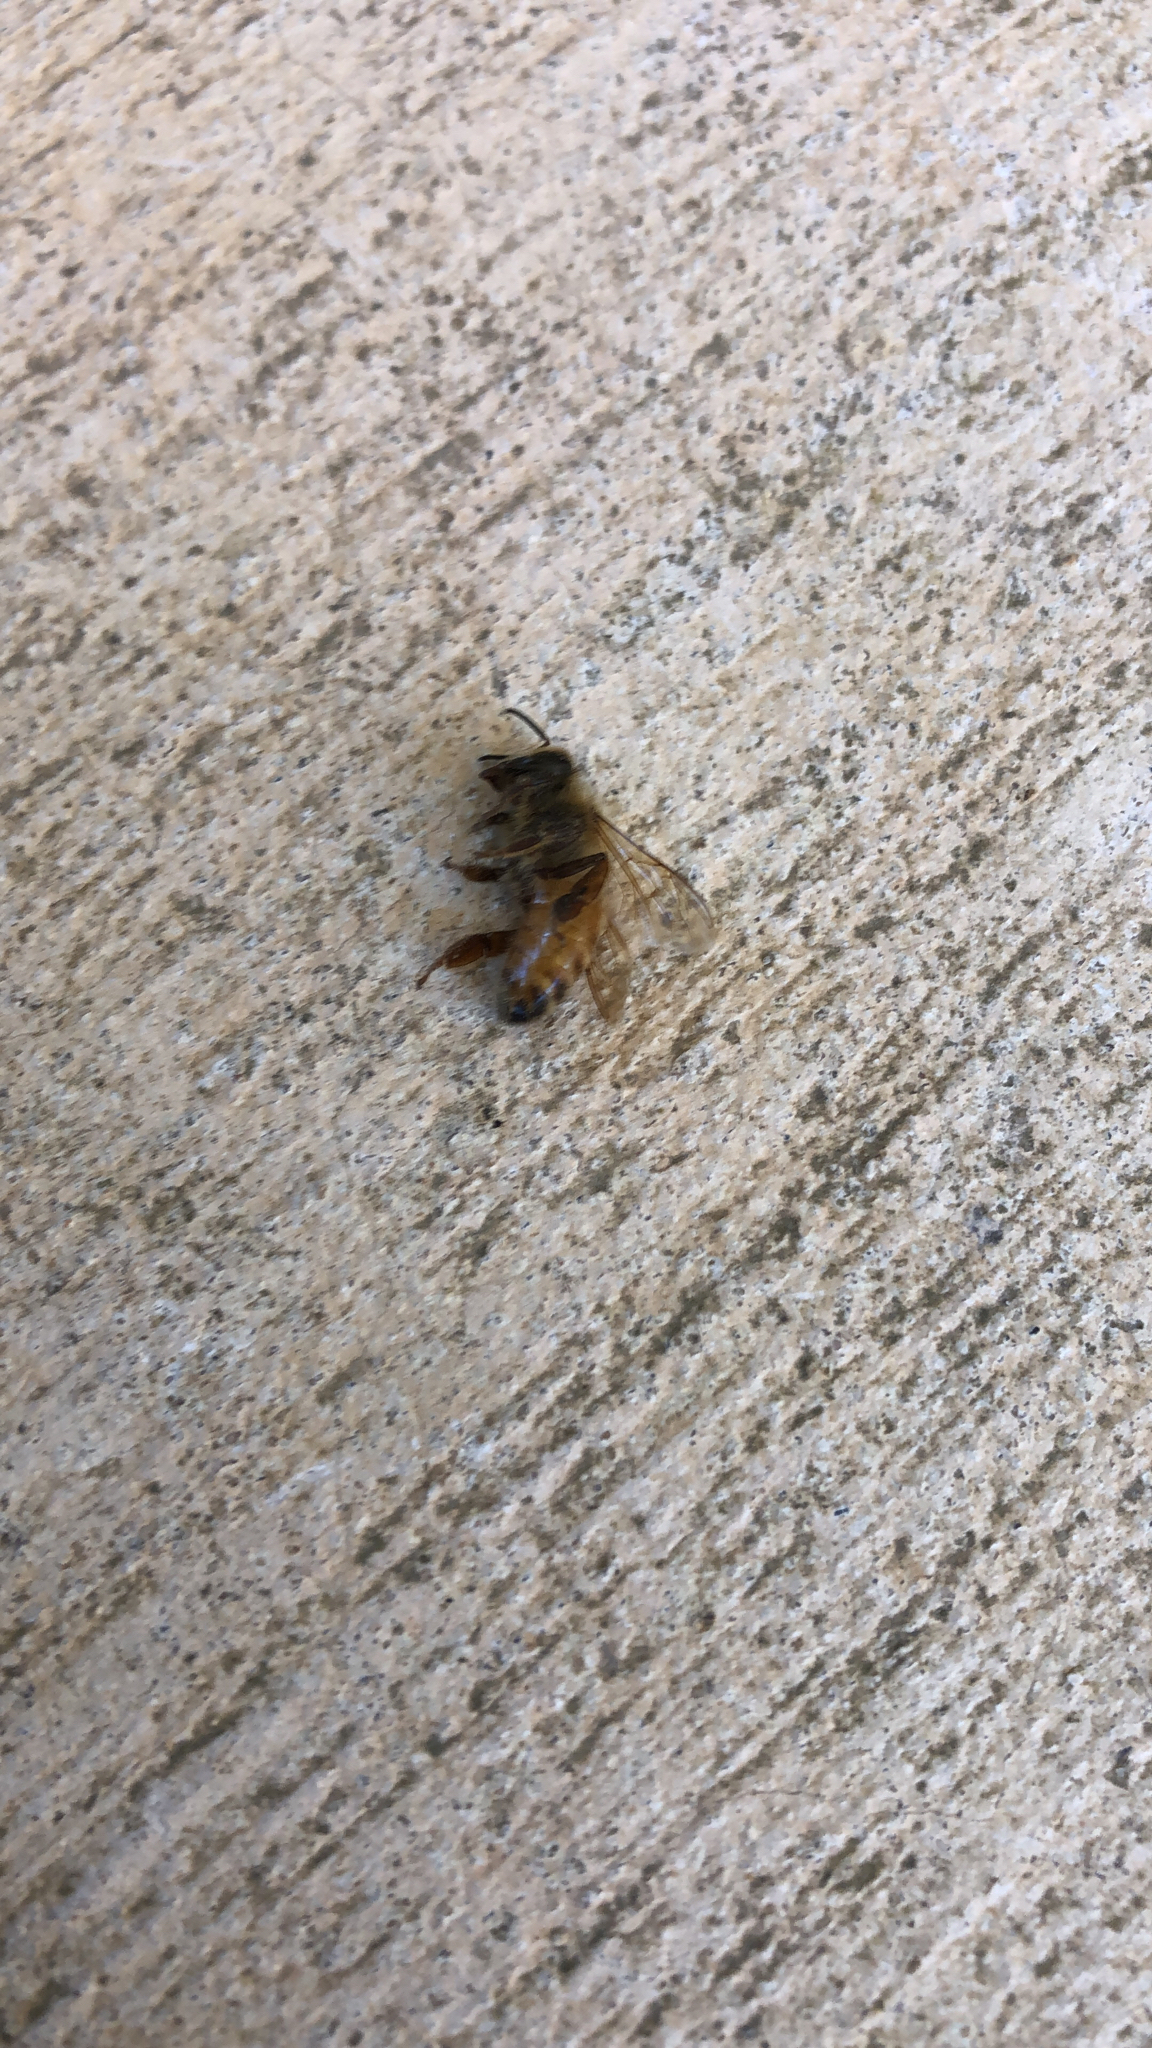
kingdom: Animalia
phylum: Arthropoda
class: Insecta
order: Hymenoptera
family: Apidae
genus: Apis
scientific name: Apis mellifera
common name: Honey bee
